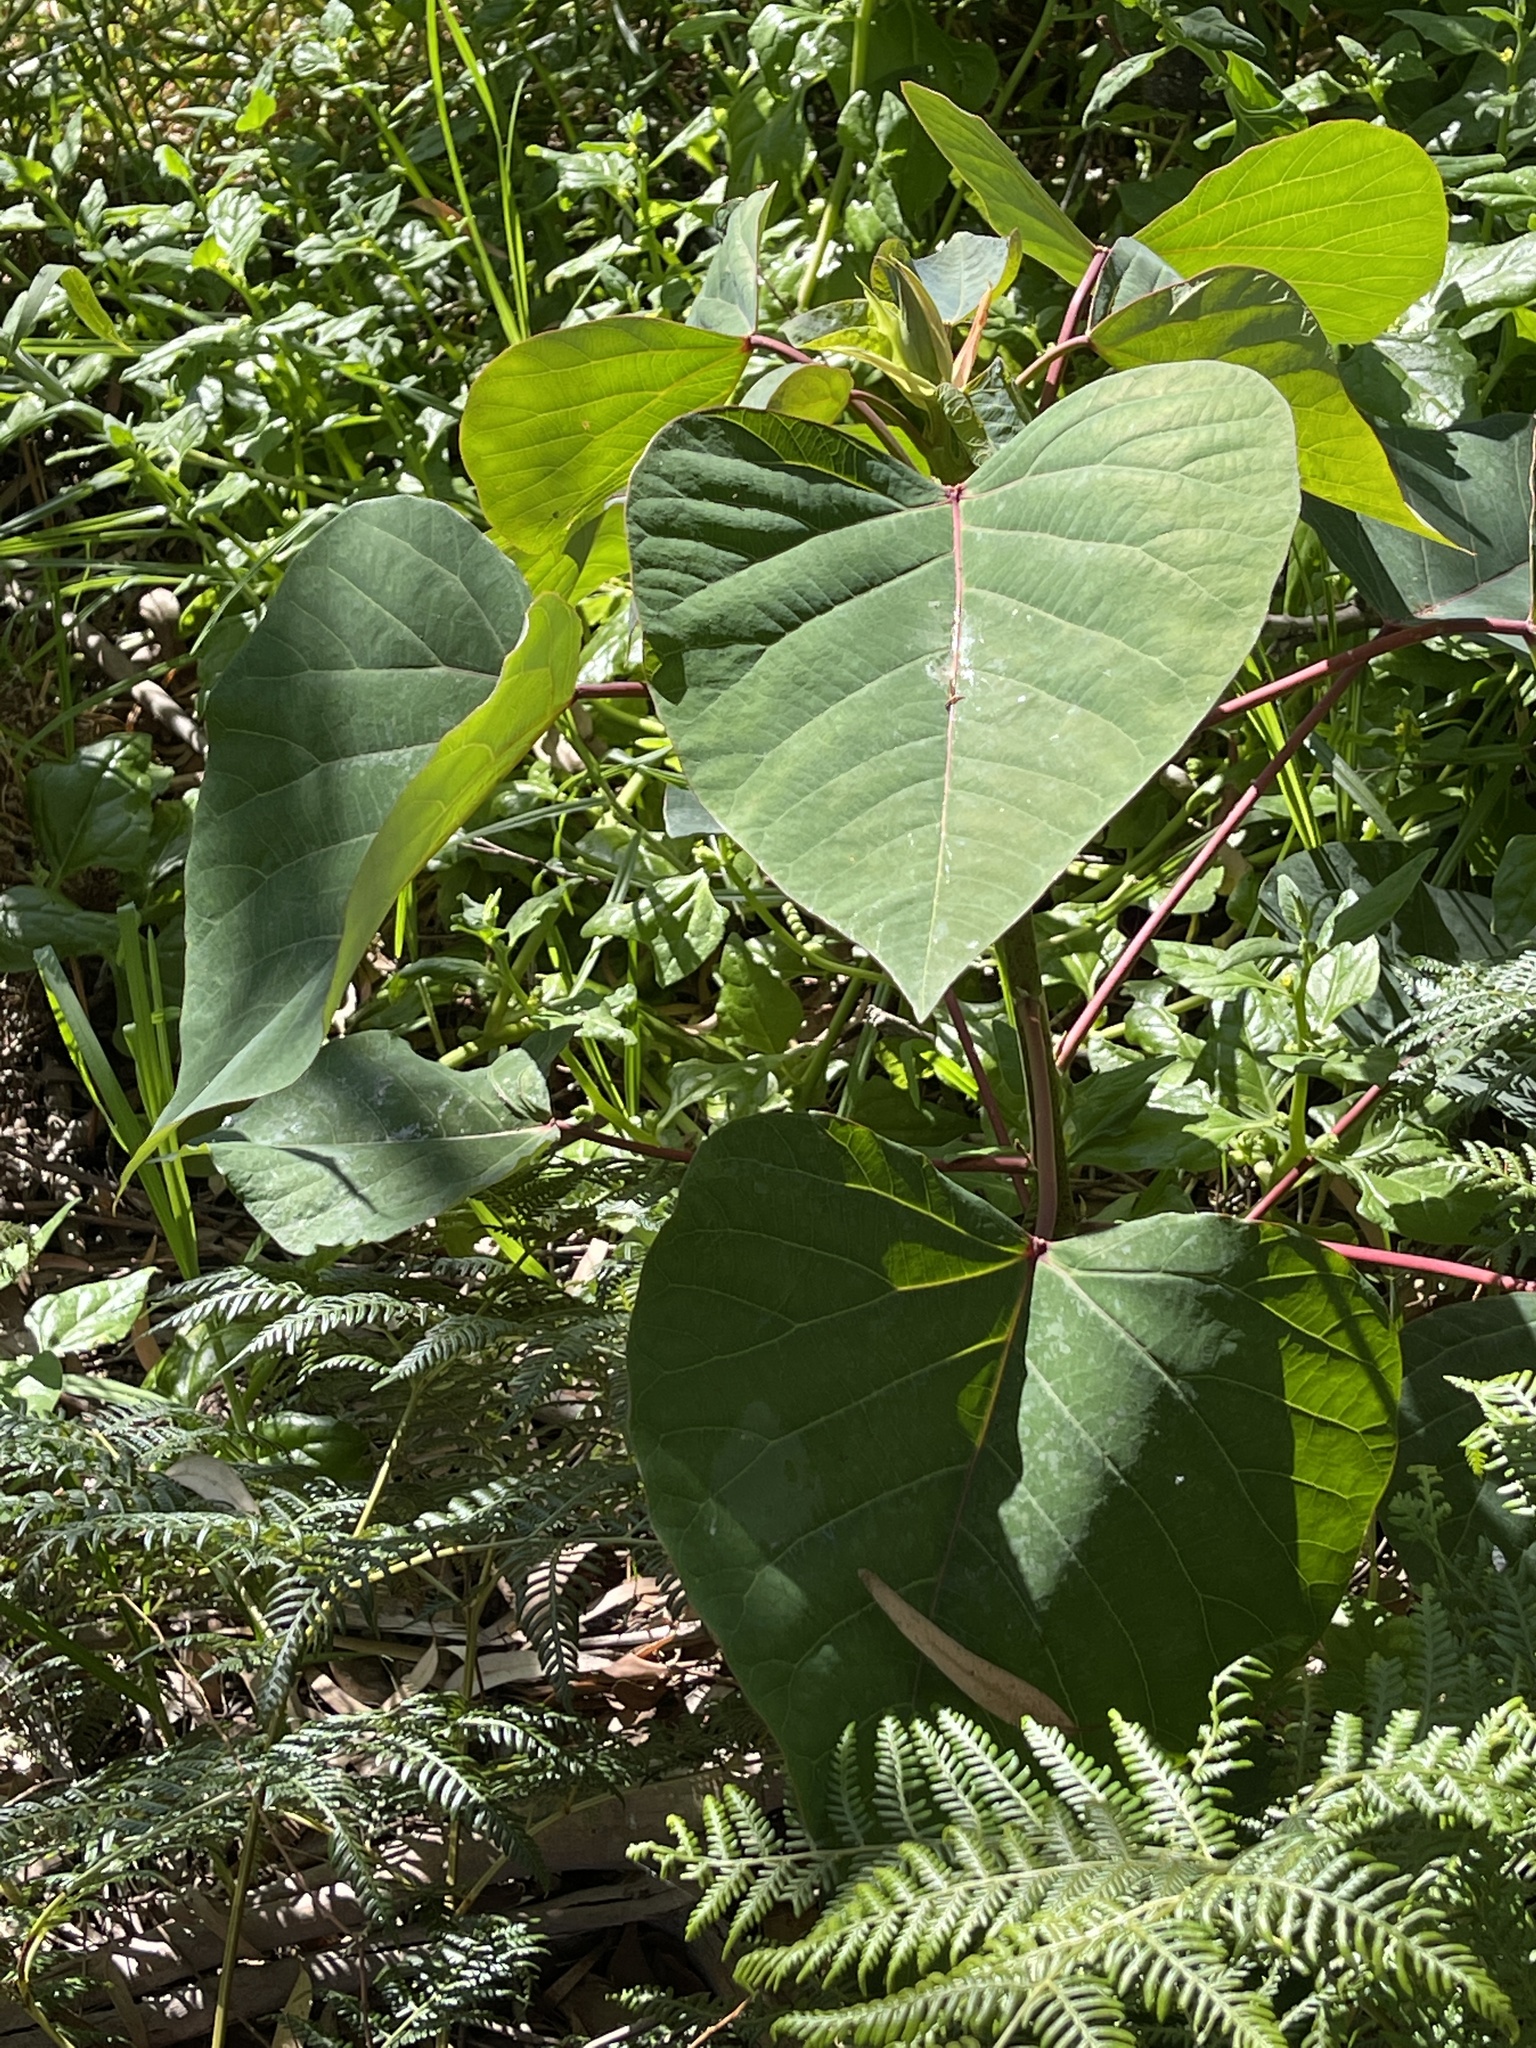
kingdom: Plantae
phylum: Tracheophyta
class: Magnoliopsida
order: Malpighiales
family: Euphorbiaceae
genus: Homalanthus
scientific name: Homalanthus populifolius
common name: Queensland poplar
